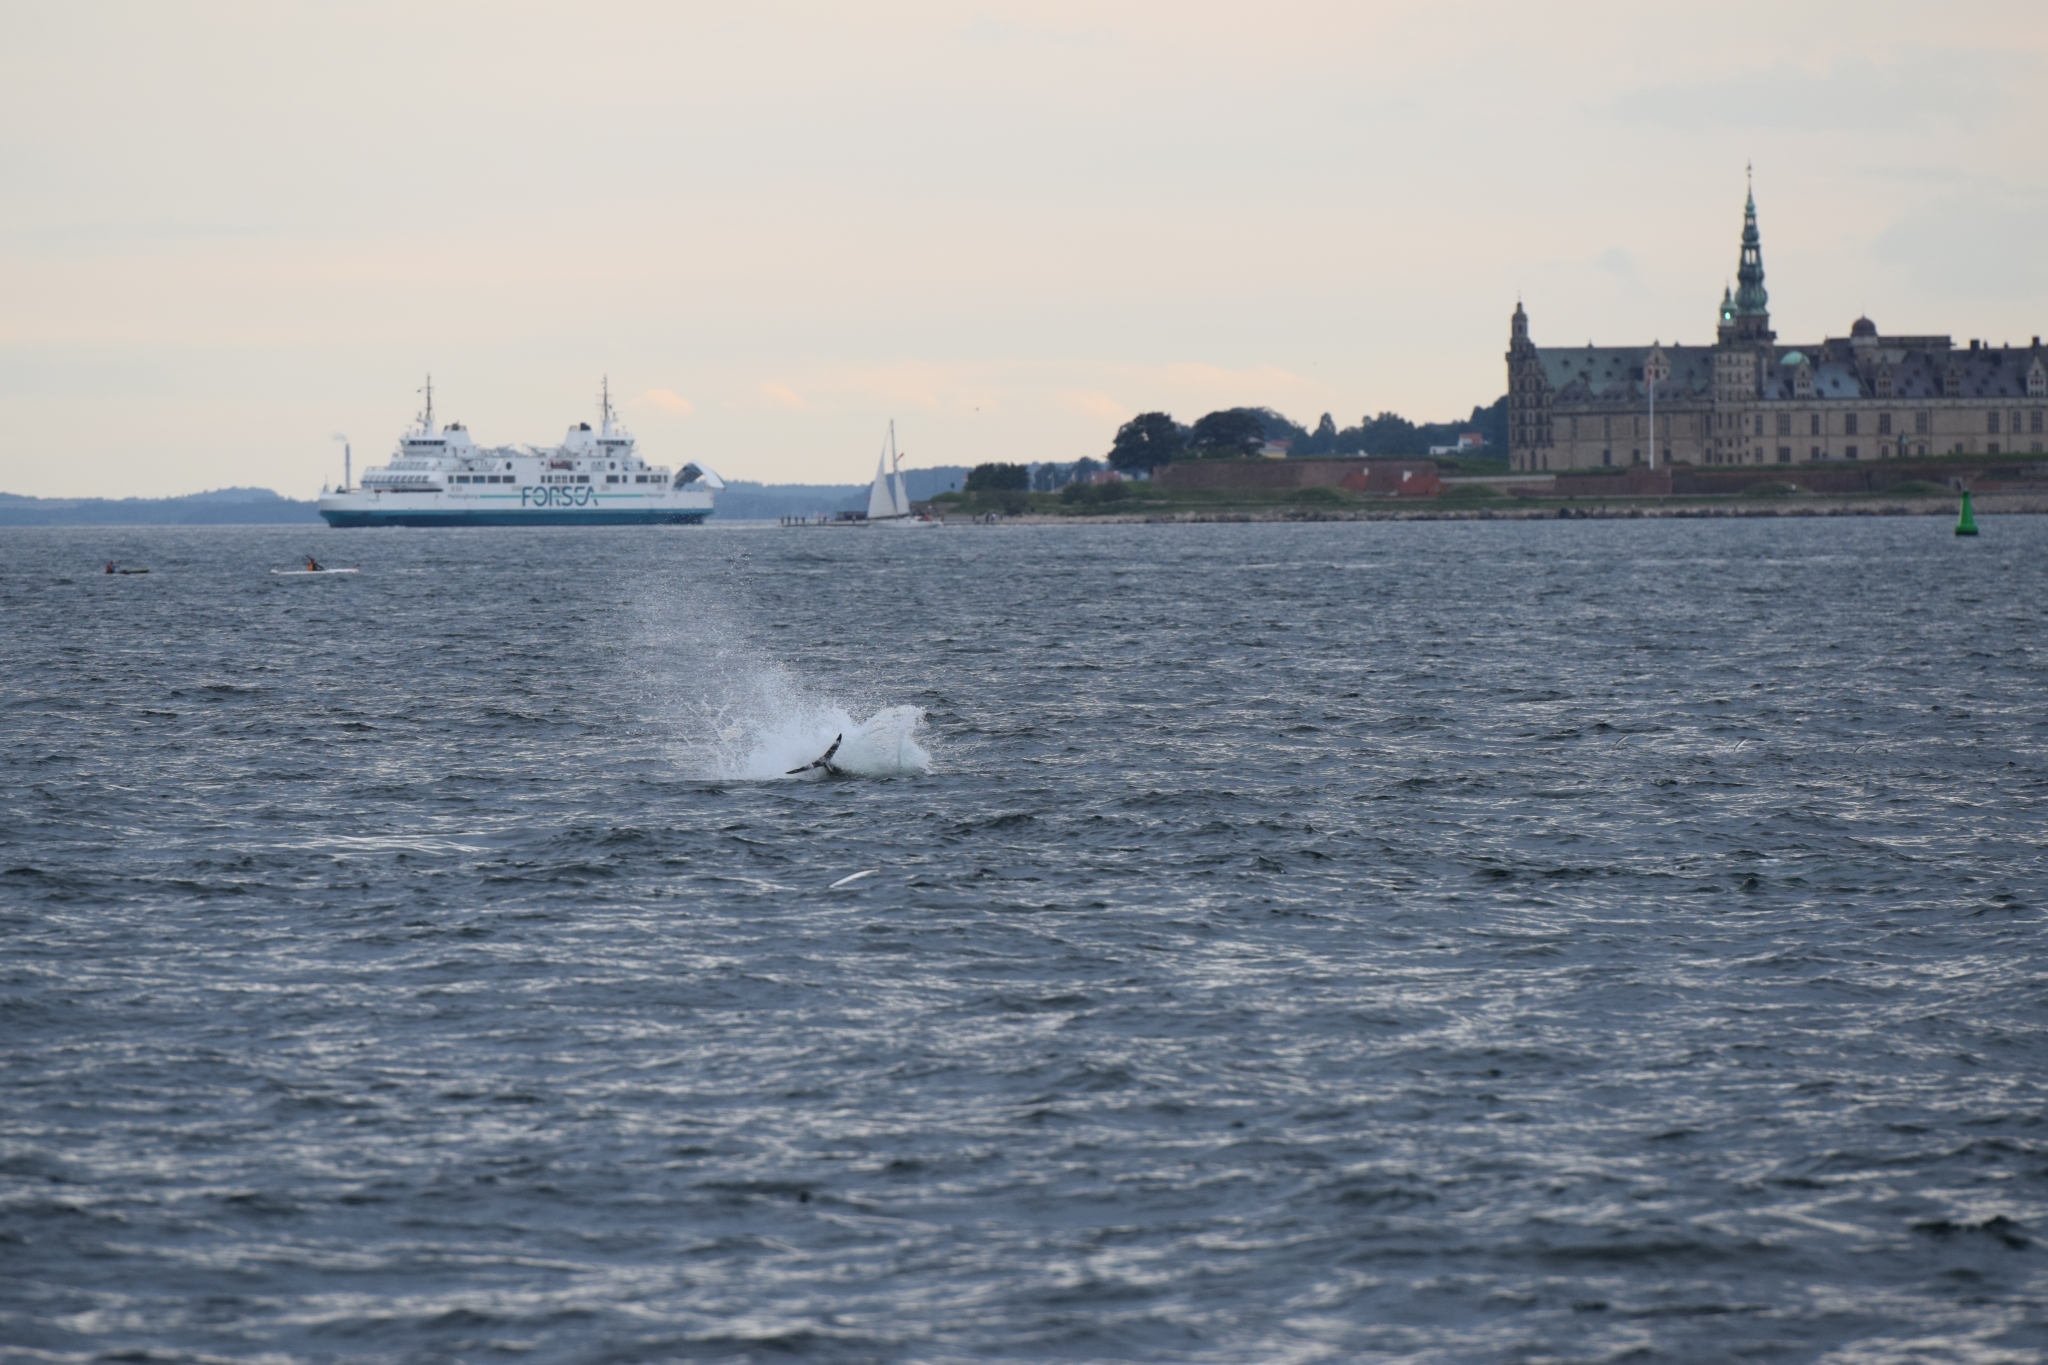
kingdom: Animalia
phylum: Chordata
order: Perciformes
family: Scombridae
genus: Thunnus
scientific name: Thunnus thynnus
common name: Bluefin tuna
